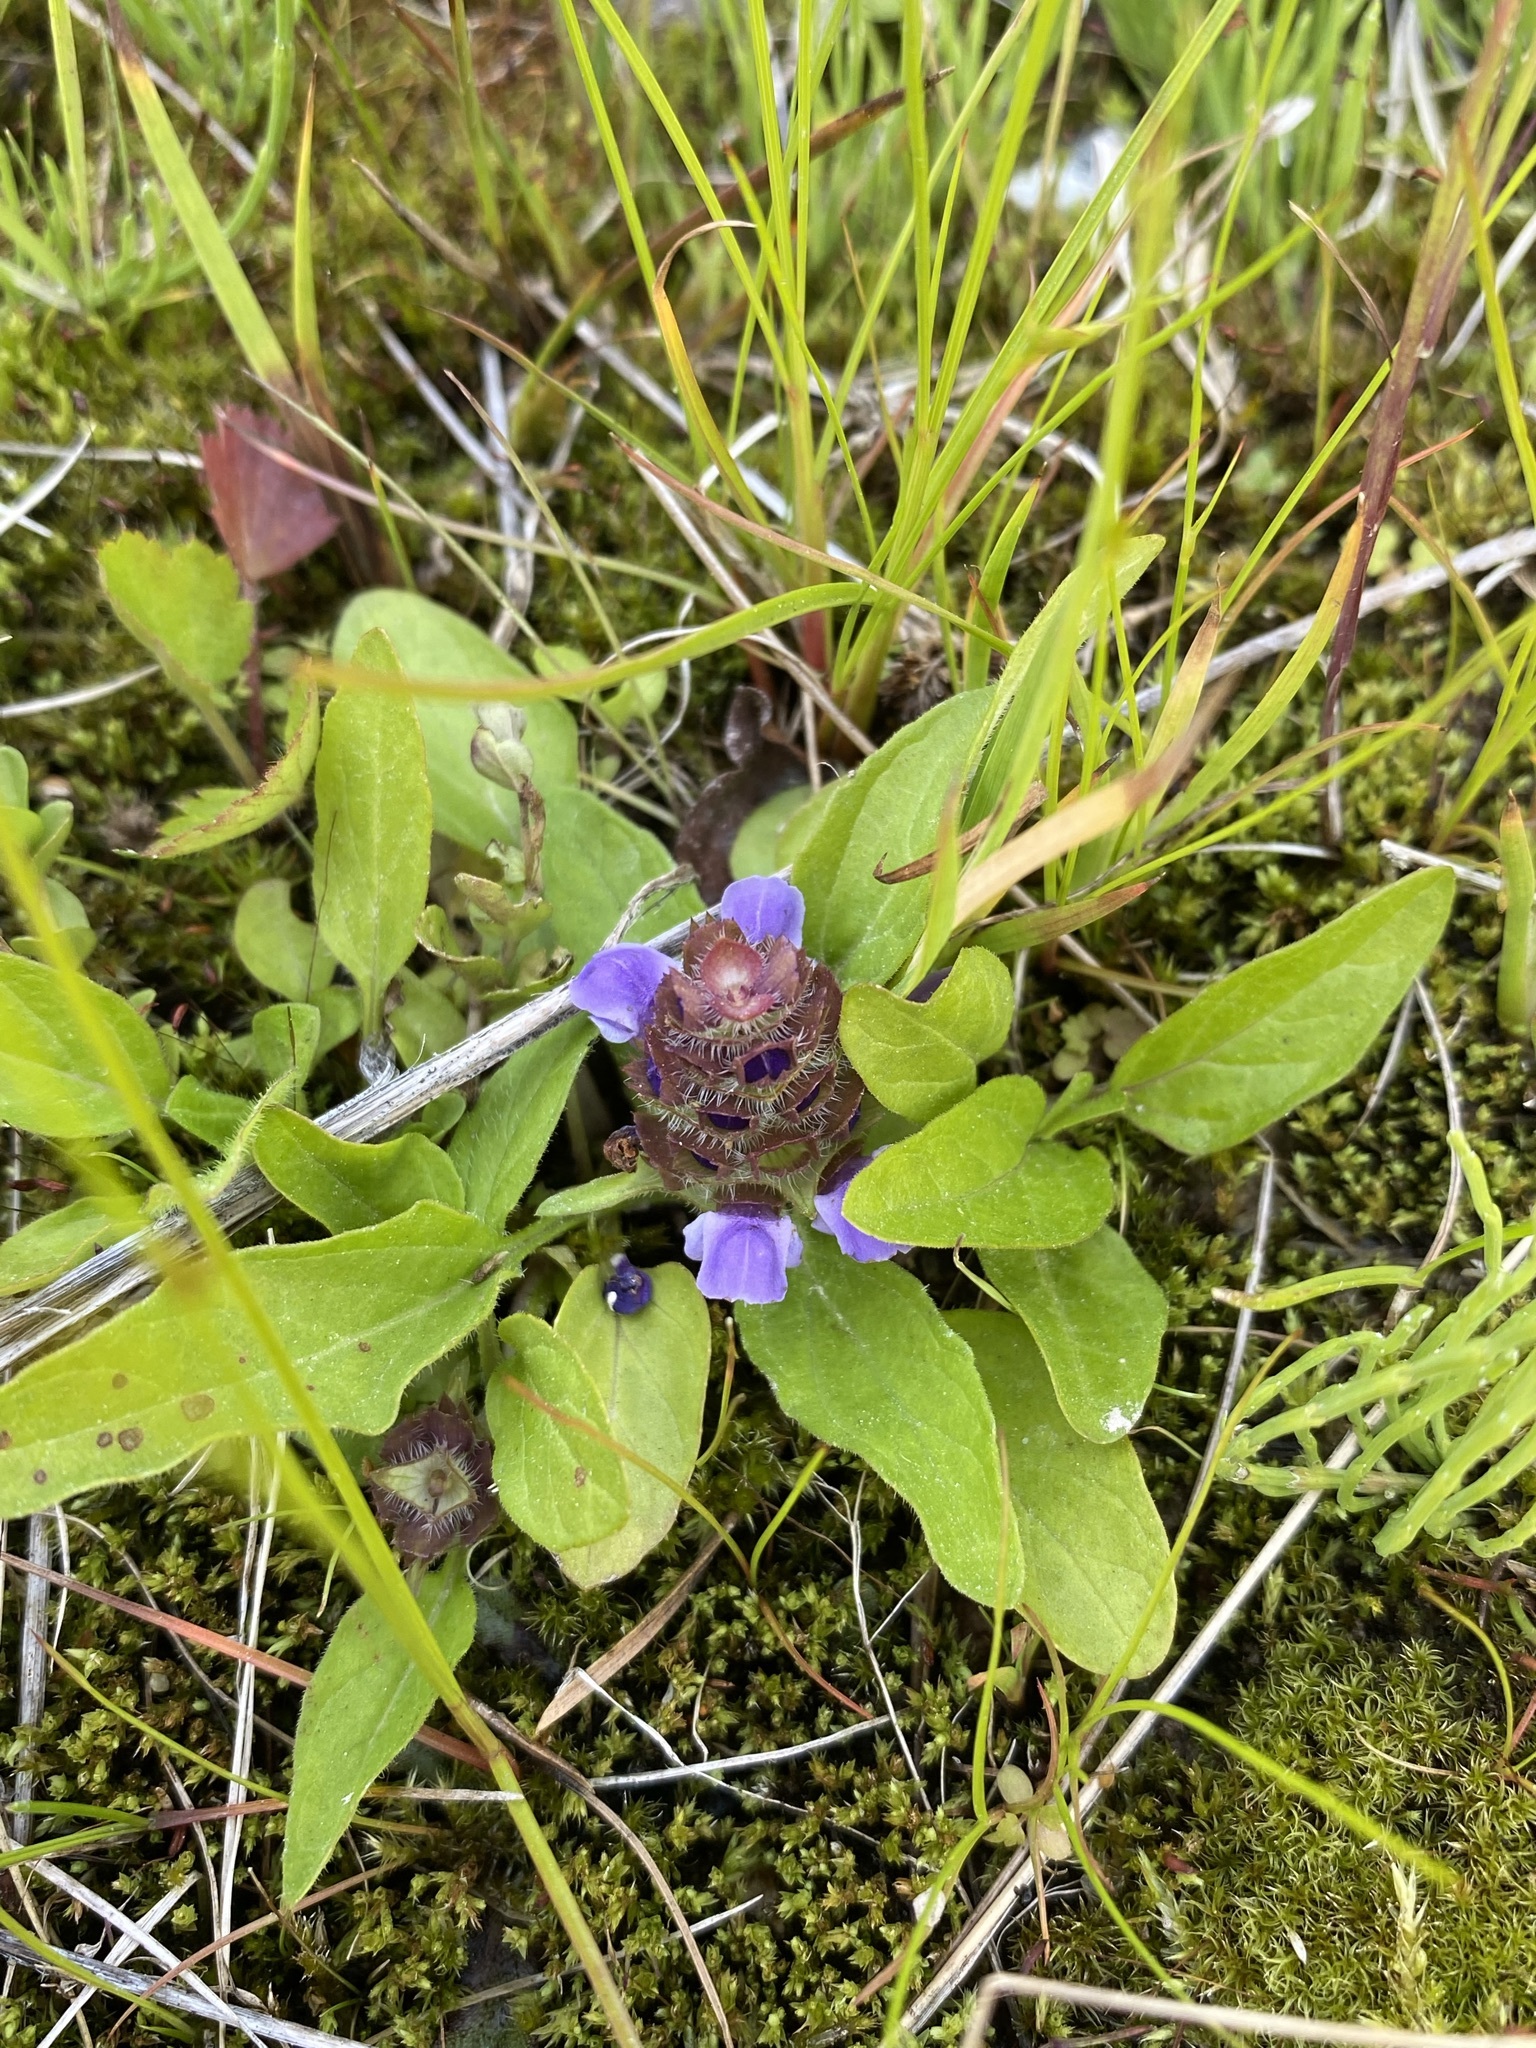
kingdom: Plantae
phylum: Tracheophyta
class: Magnoliopsida
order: Lamiales
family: Lamiaceae
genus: Prunella
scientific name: Prunella vulgaris
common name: Heal-all
